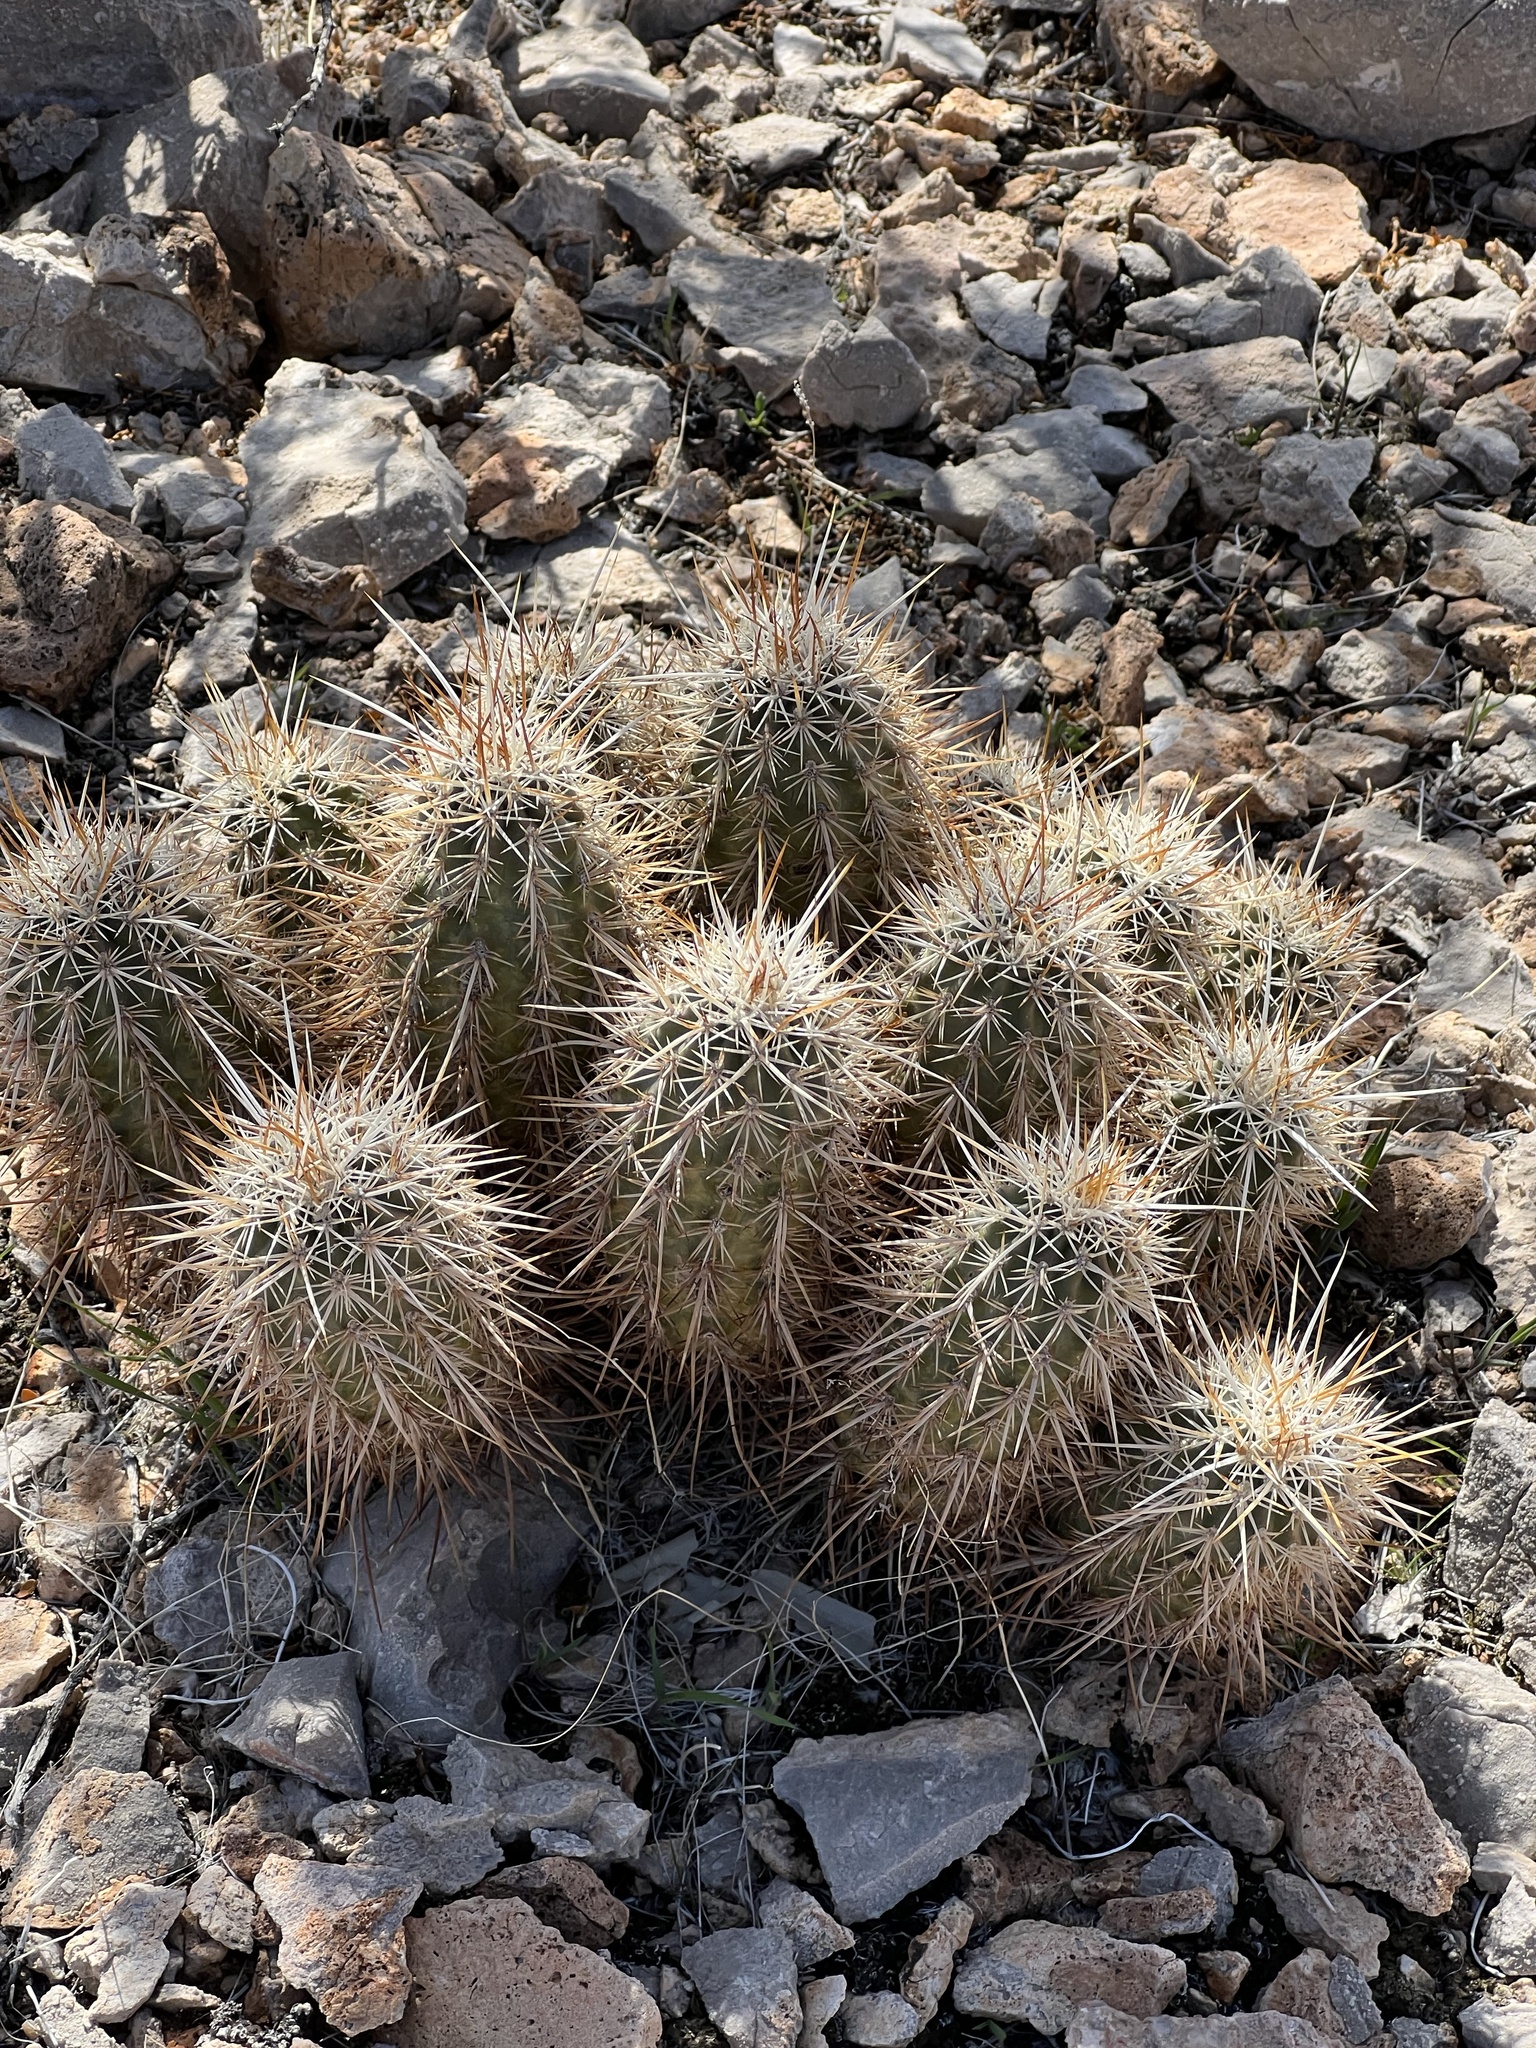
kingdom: Plantae
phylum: Tracheophyta
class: Magnoliopsida
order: Caryophyllales
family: Cactaceae
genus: Echinocereus
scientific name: Echinocereus engelmannii
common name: Engelmann's hedgehog cactus
